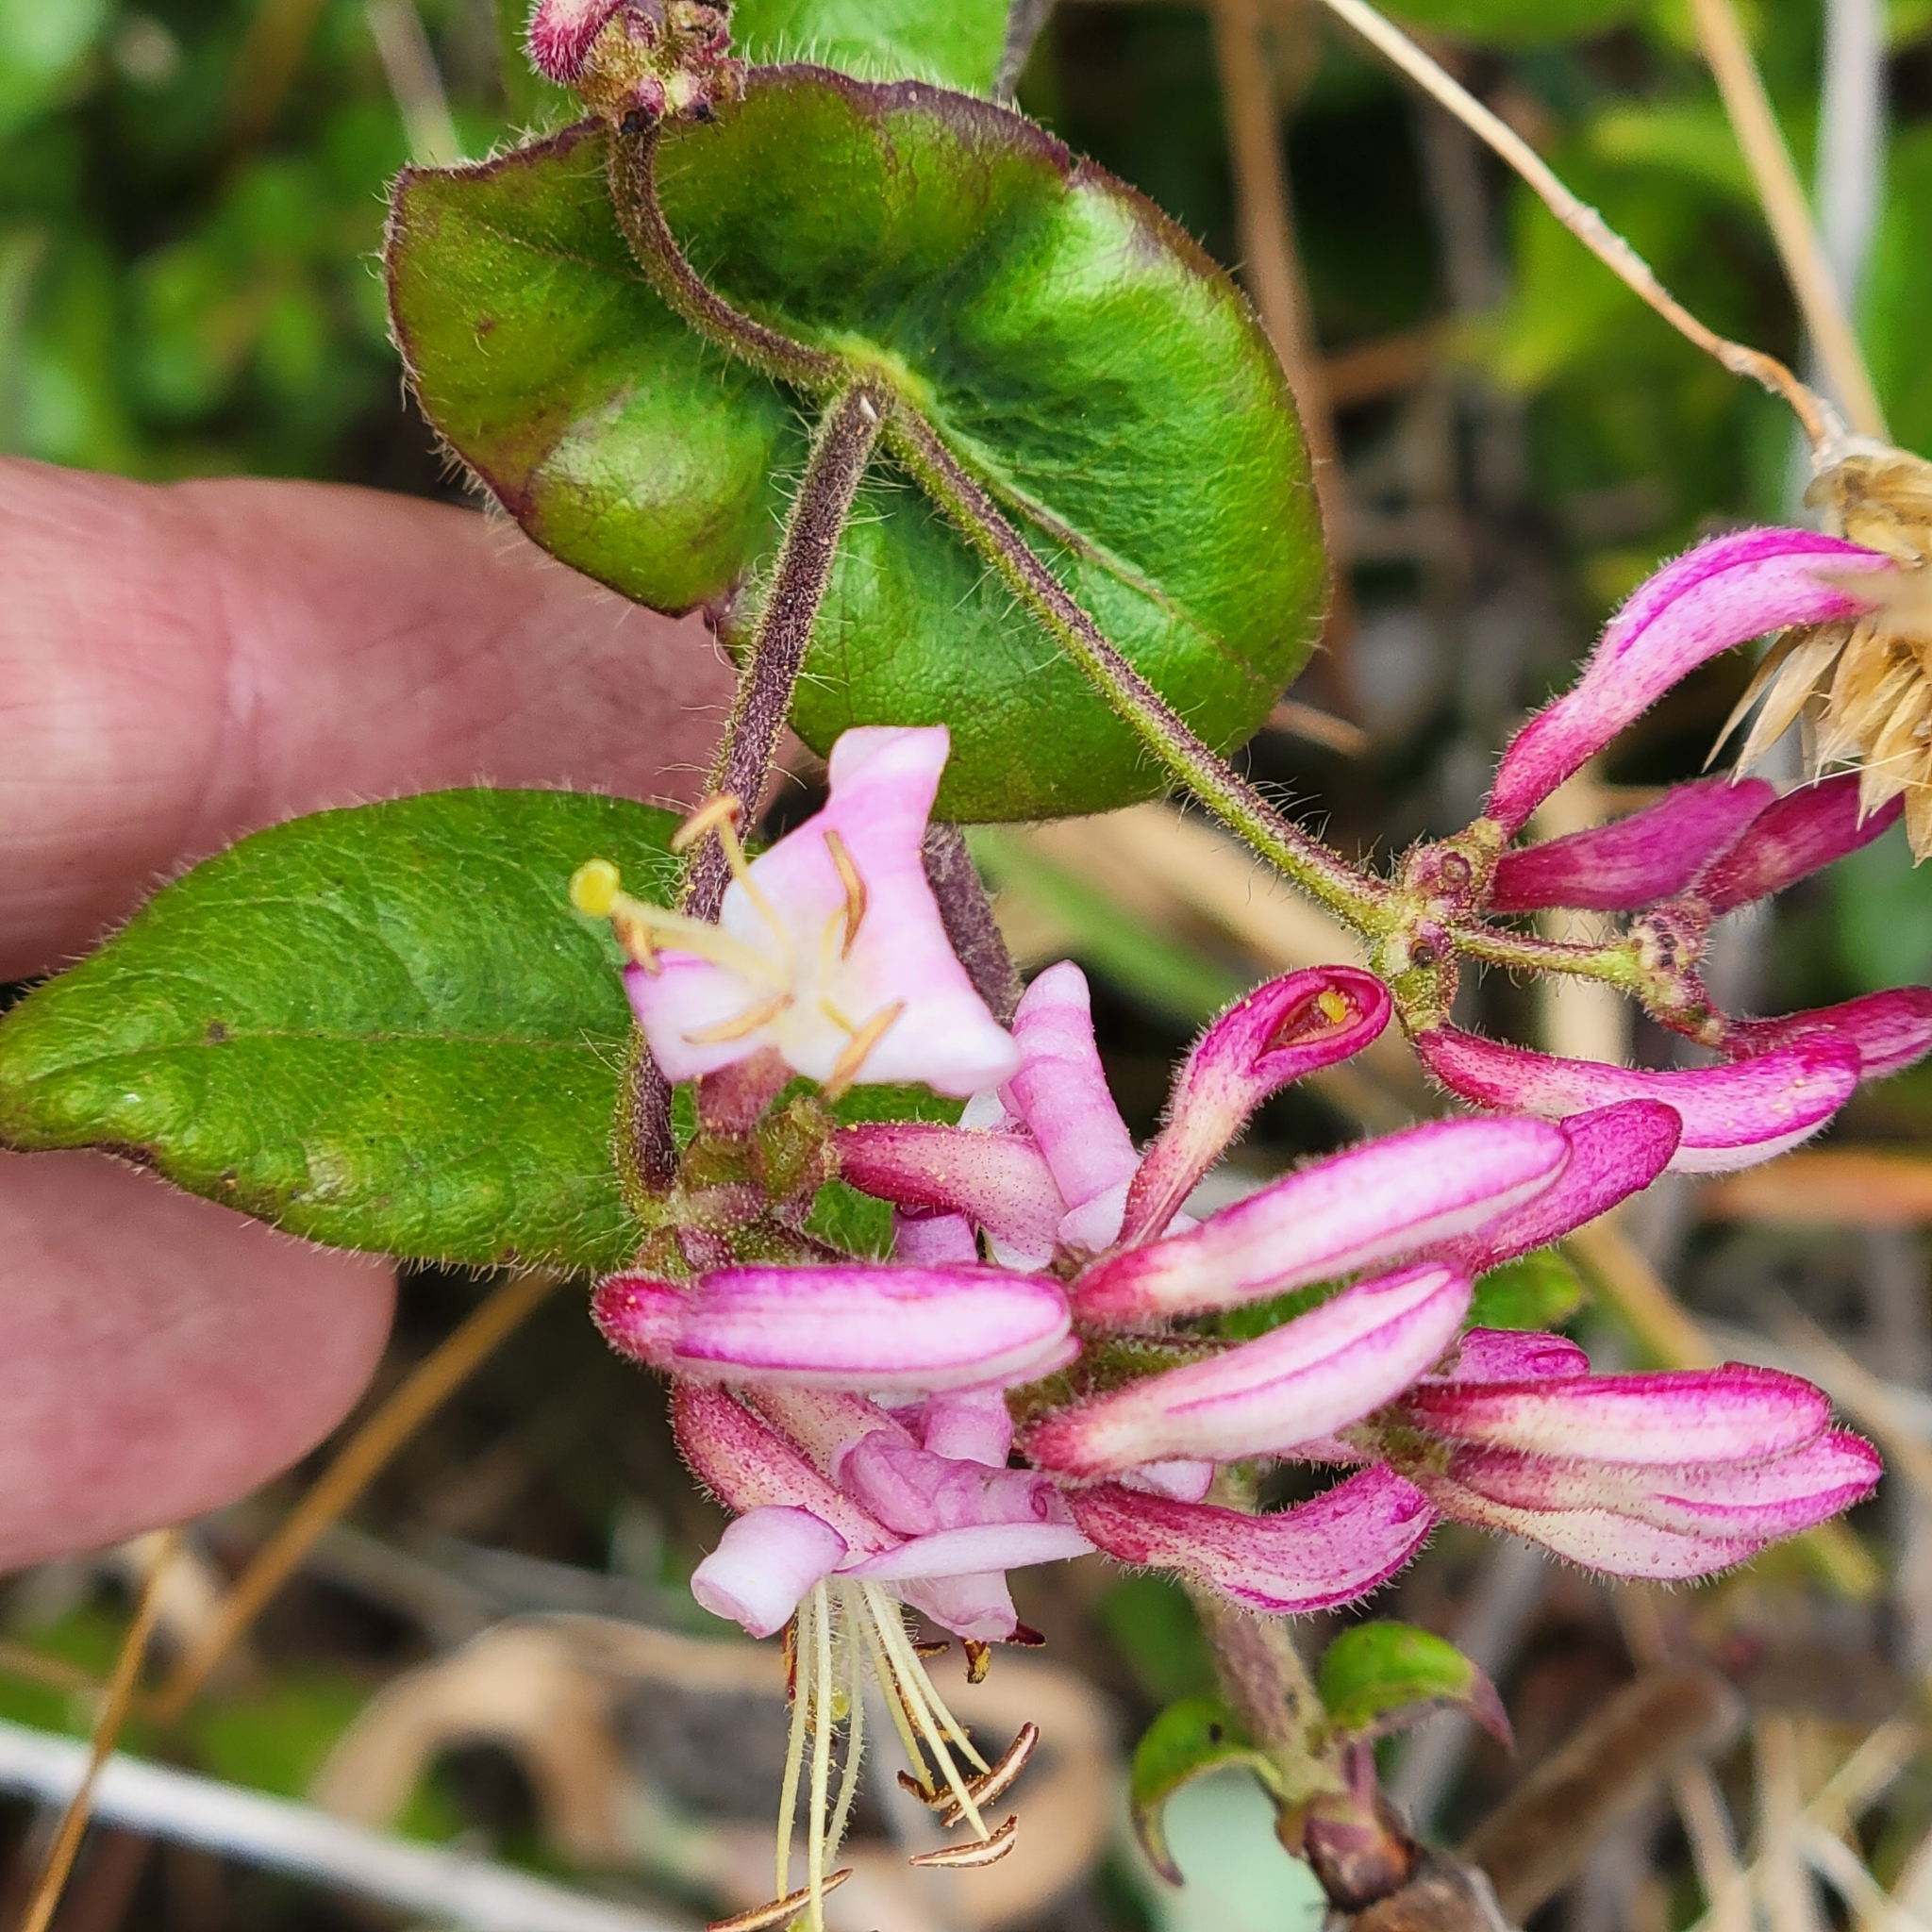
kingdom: Plantae
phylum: Tracheophyta
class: Magnoliopsida
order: Dipsacales
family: Caprifoliaceae
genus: Lonicera
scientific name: Lonicera hispidula
